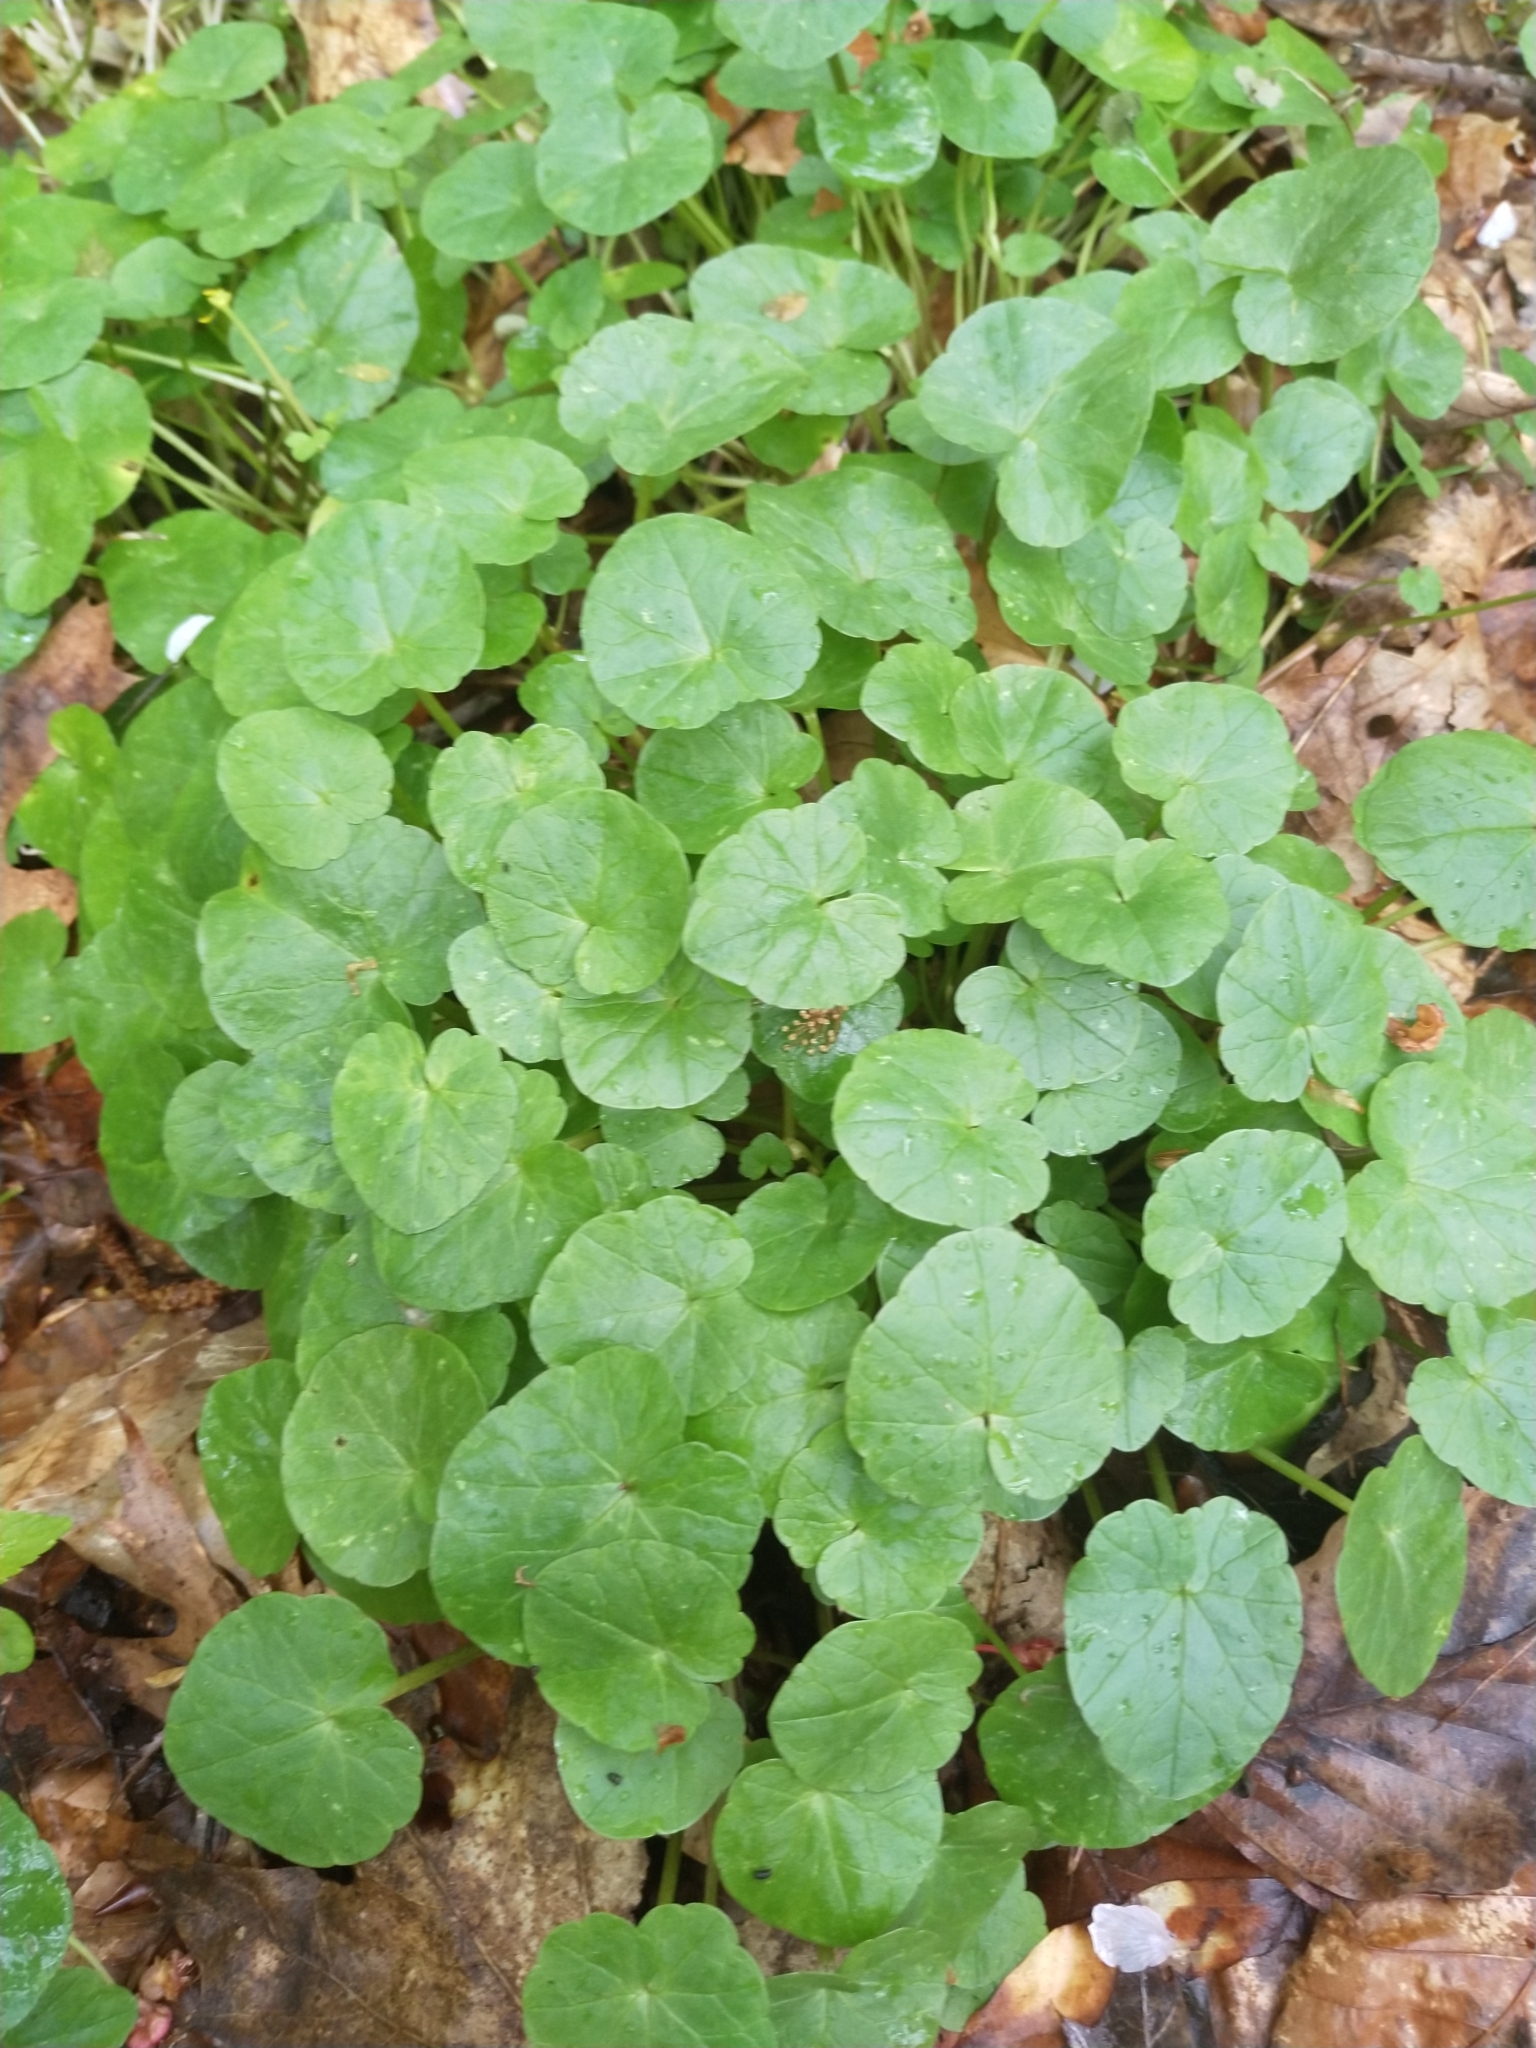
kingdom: Plantae
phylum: Tracheophyta
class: Magnoliopsida
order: Ranunculales
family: Ranunculaceae
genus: Ficaria
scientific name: Ficaria verna
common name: Lesser celandine
